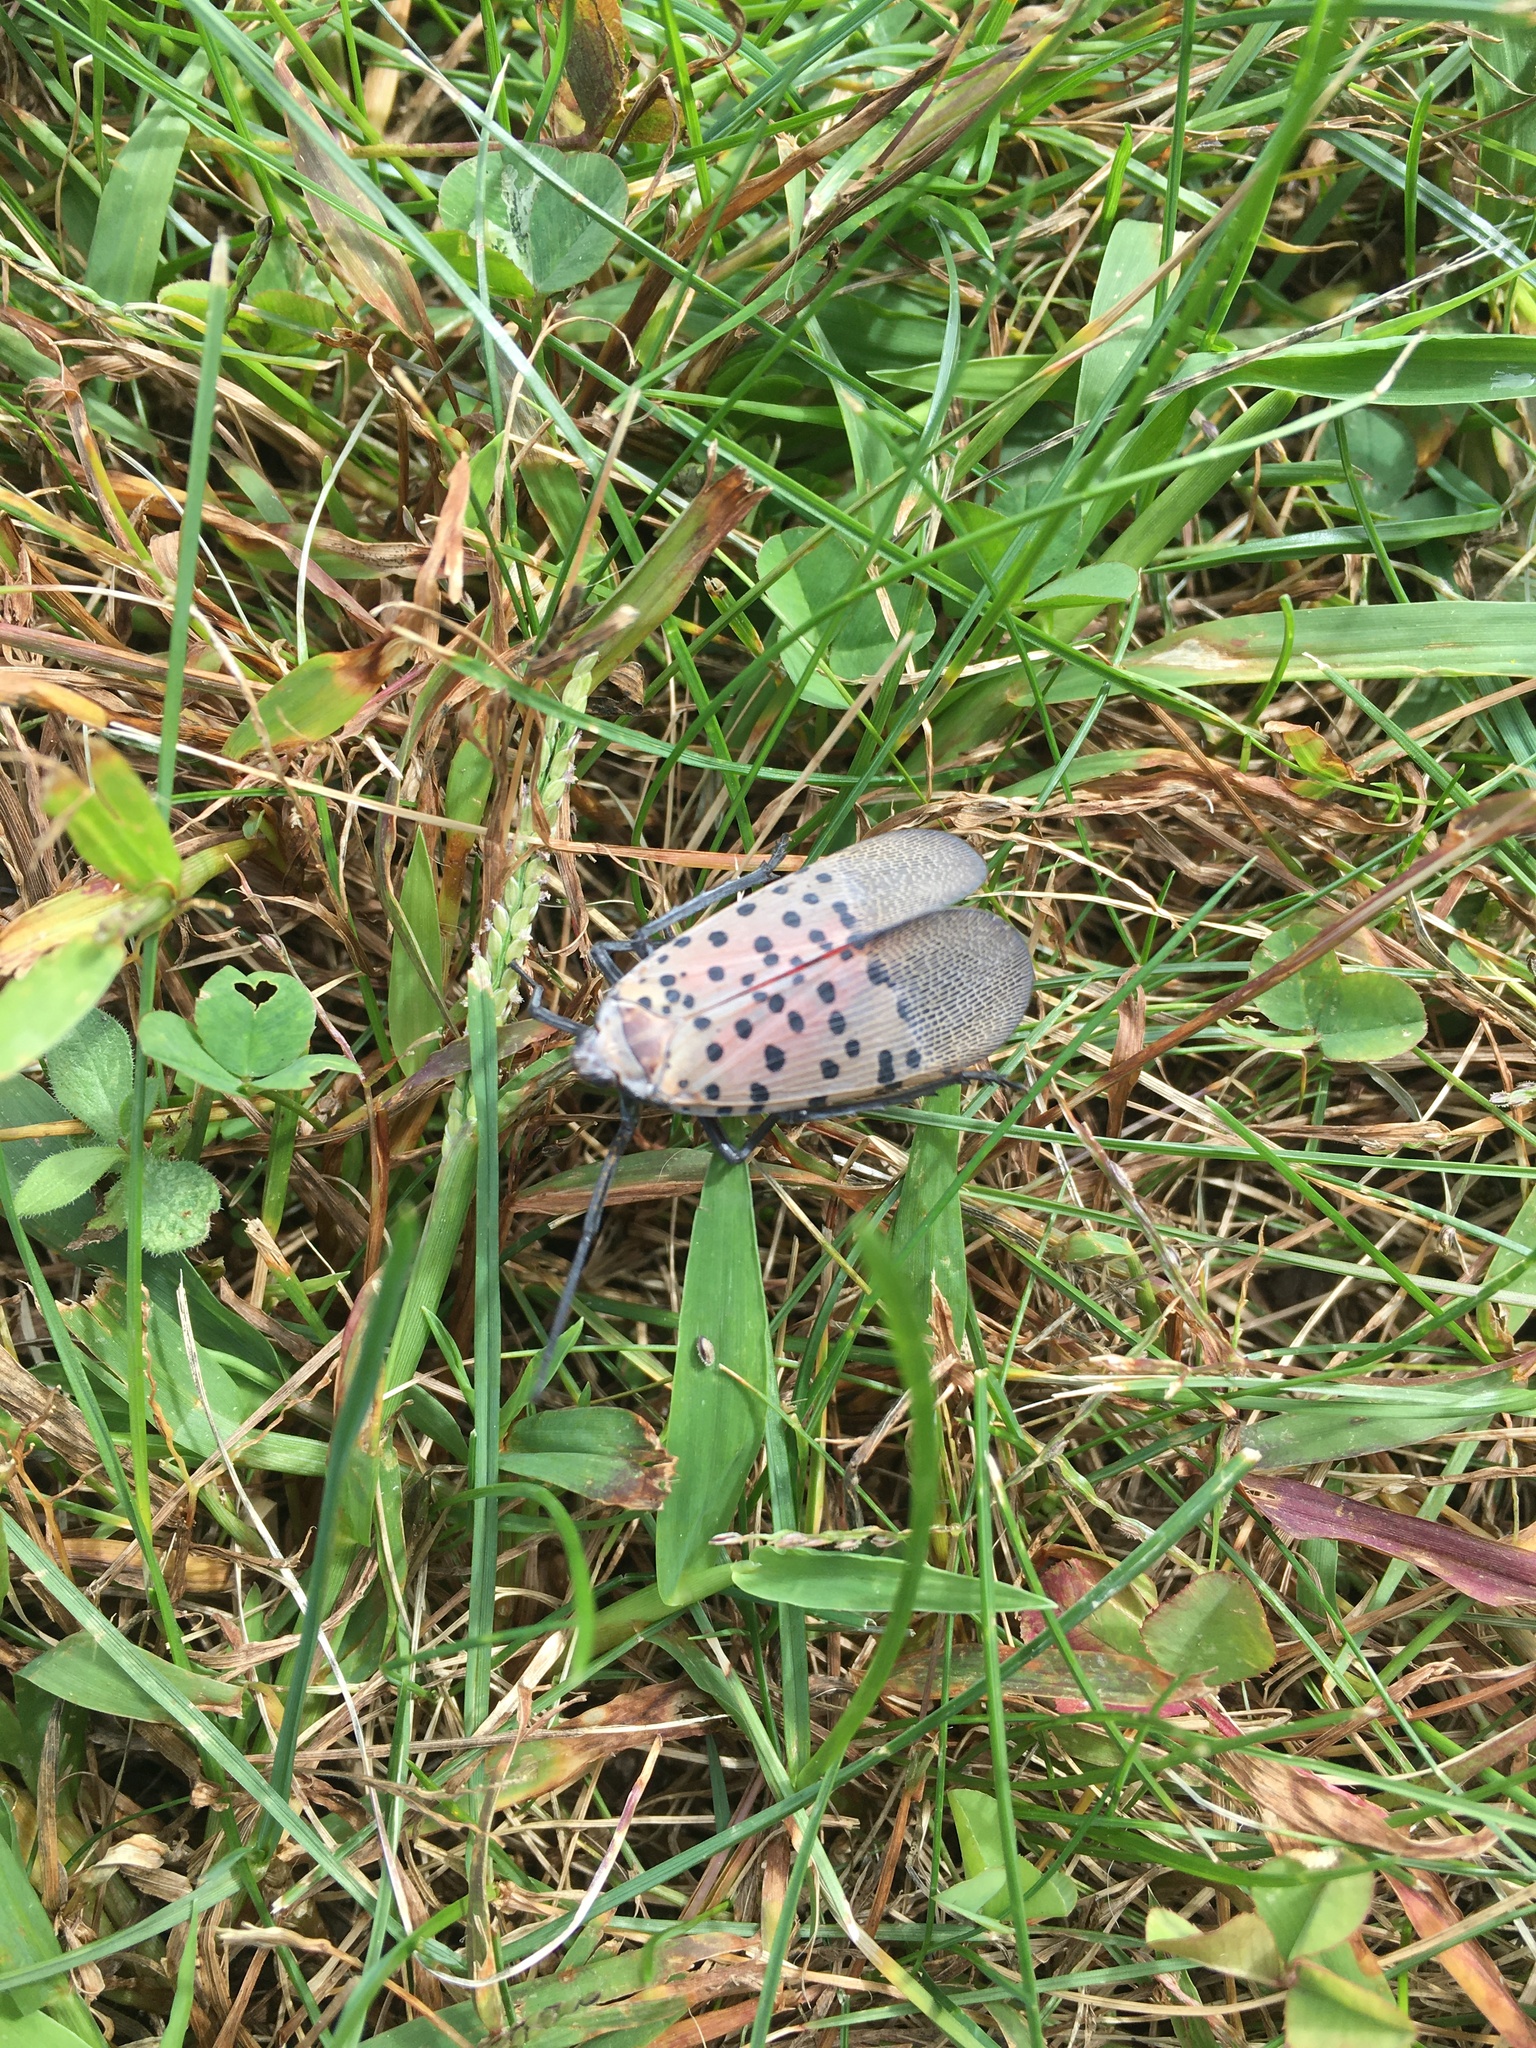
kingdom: Animalia
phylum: Arthropoda
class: Insecta
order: Hemiptera
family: Fulgoridae
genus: Lycorma
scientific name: Lycorma delicatula
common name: Spotted lanternfly
